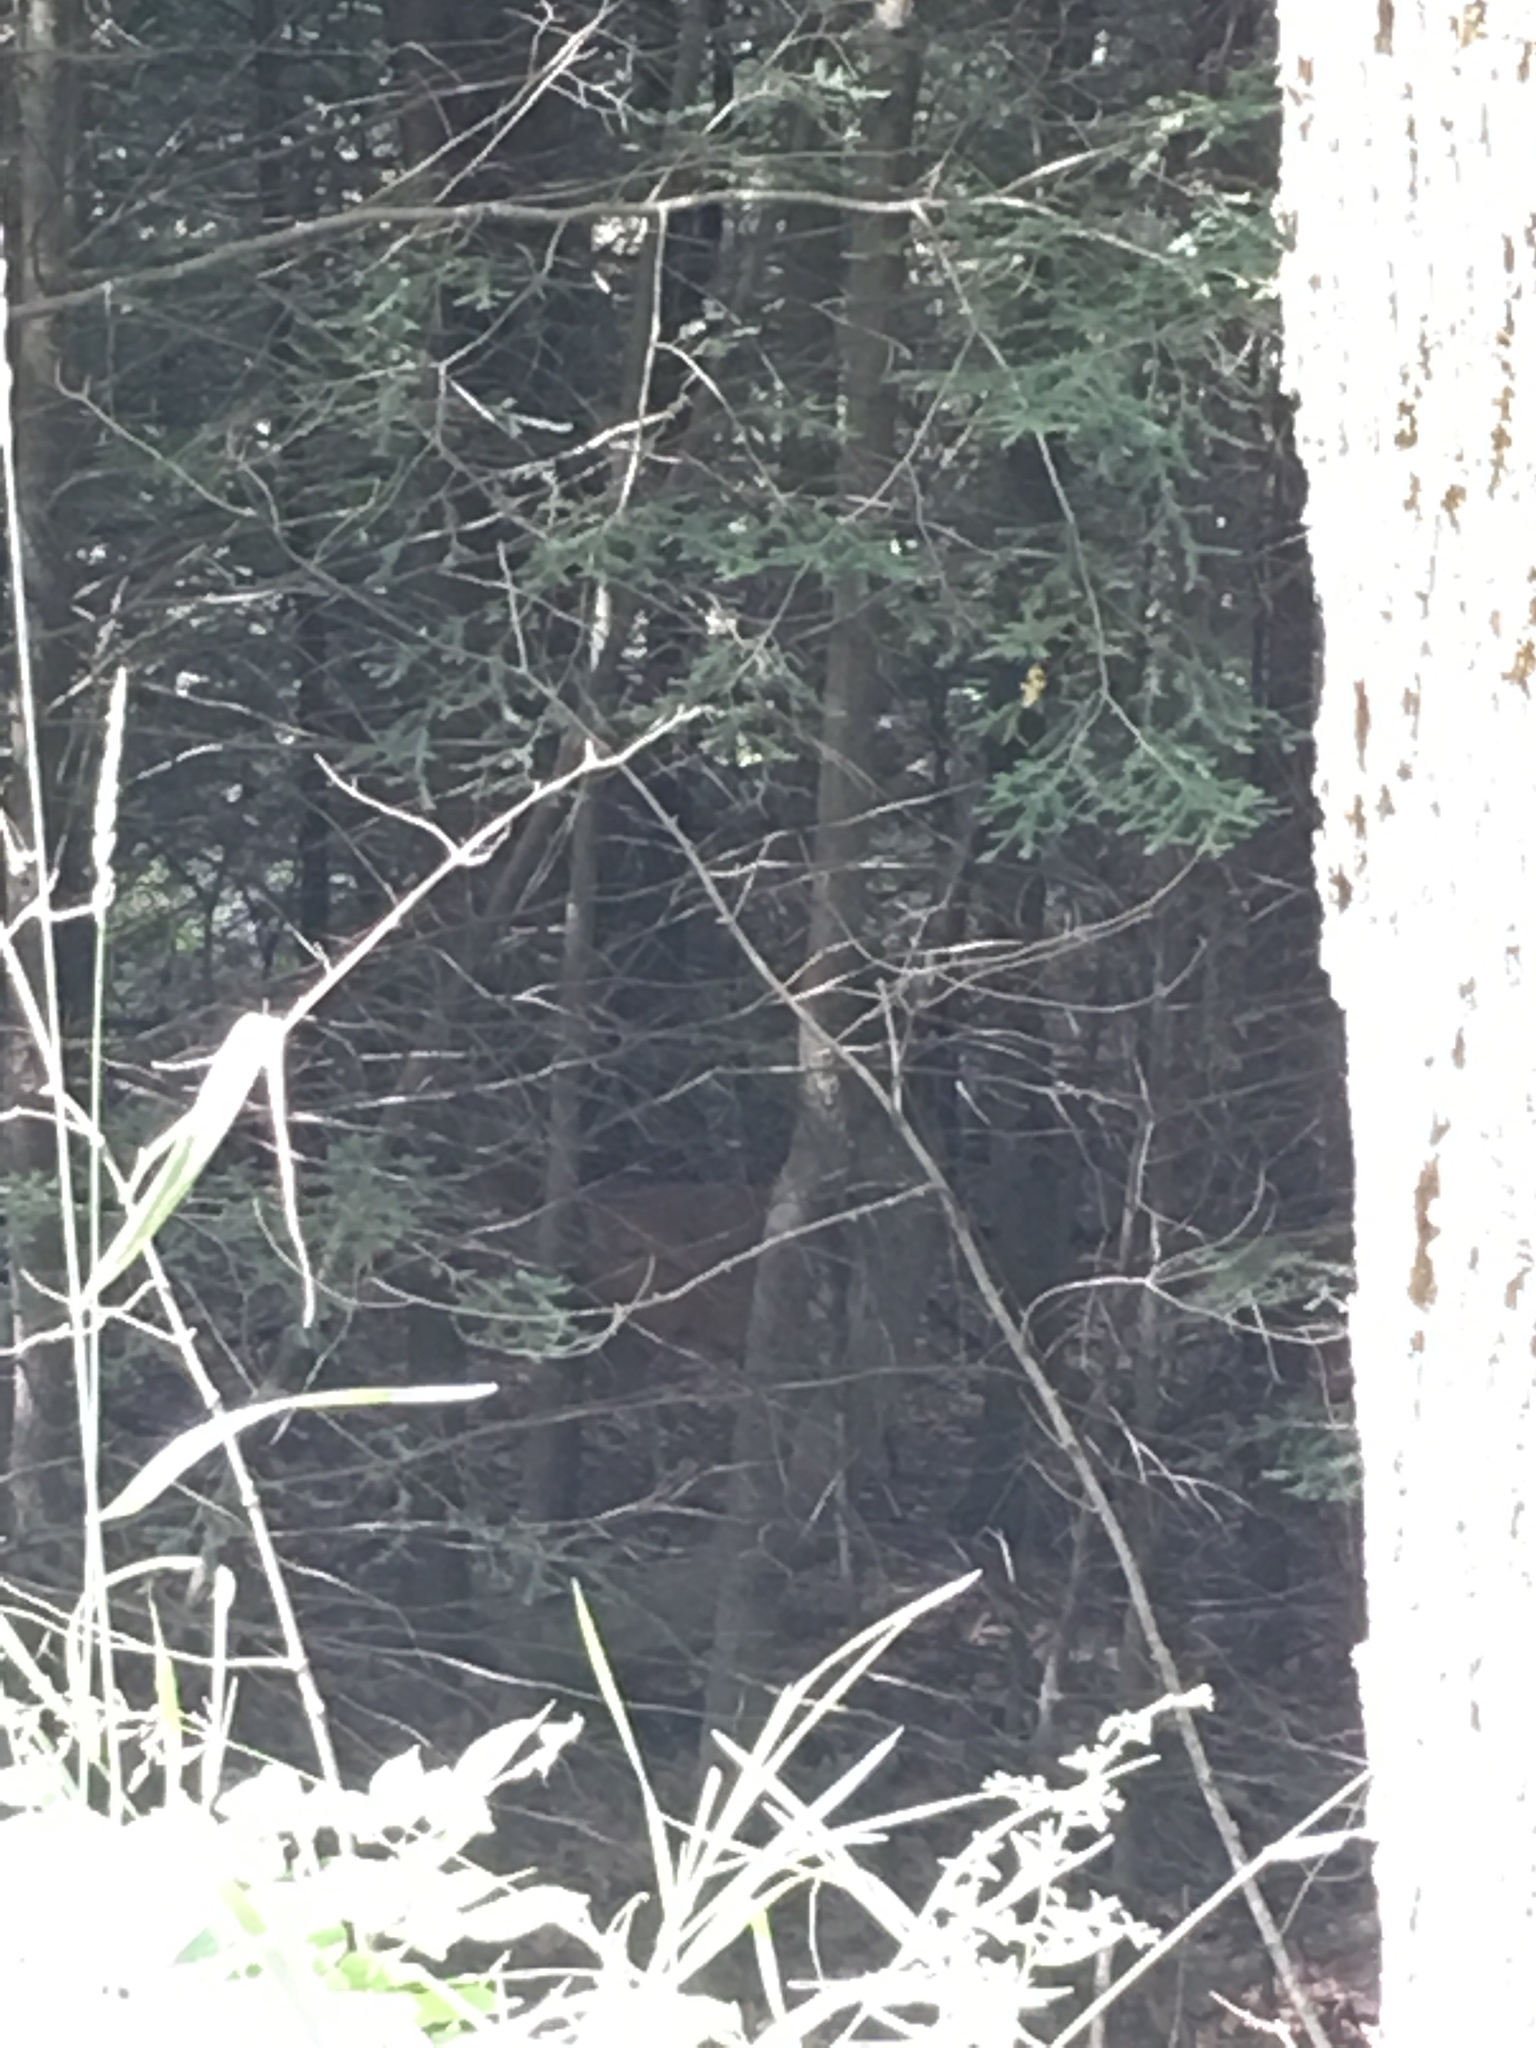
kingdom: Animalia
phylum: Chordata
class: Mammalia
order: Artiodactyla
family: Cervidae
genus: Odocoileus
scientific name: Odocoileus virginianus
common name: White-tailed deer
